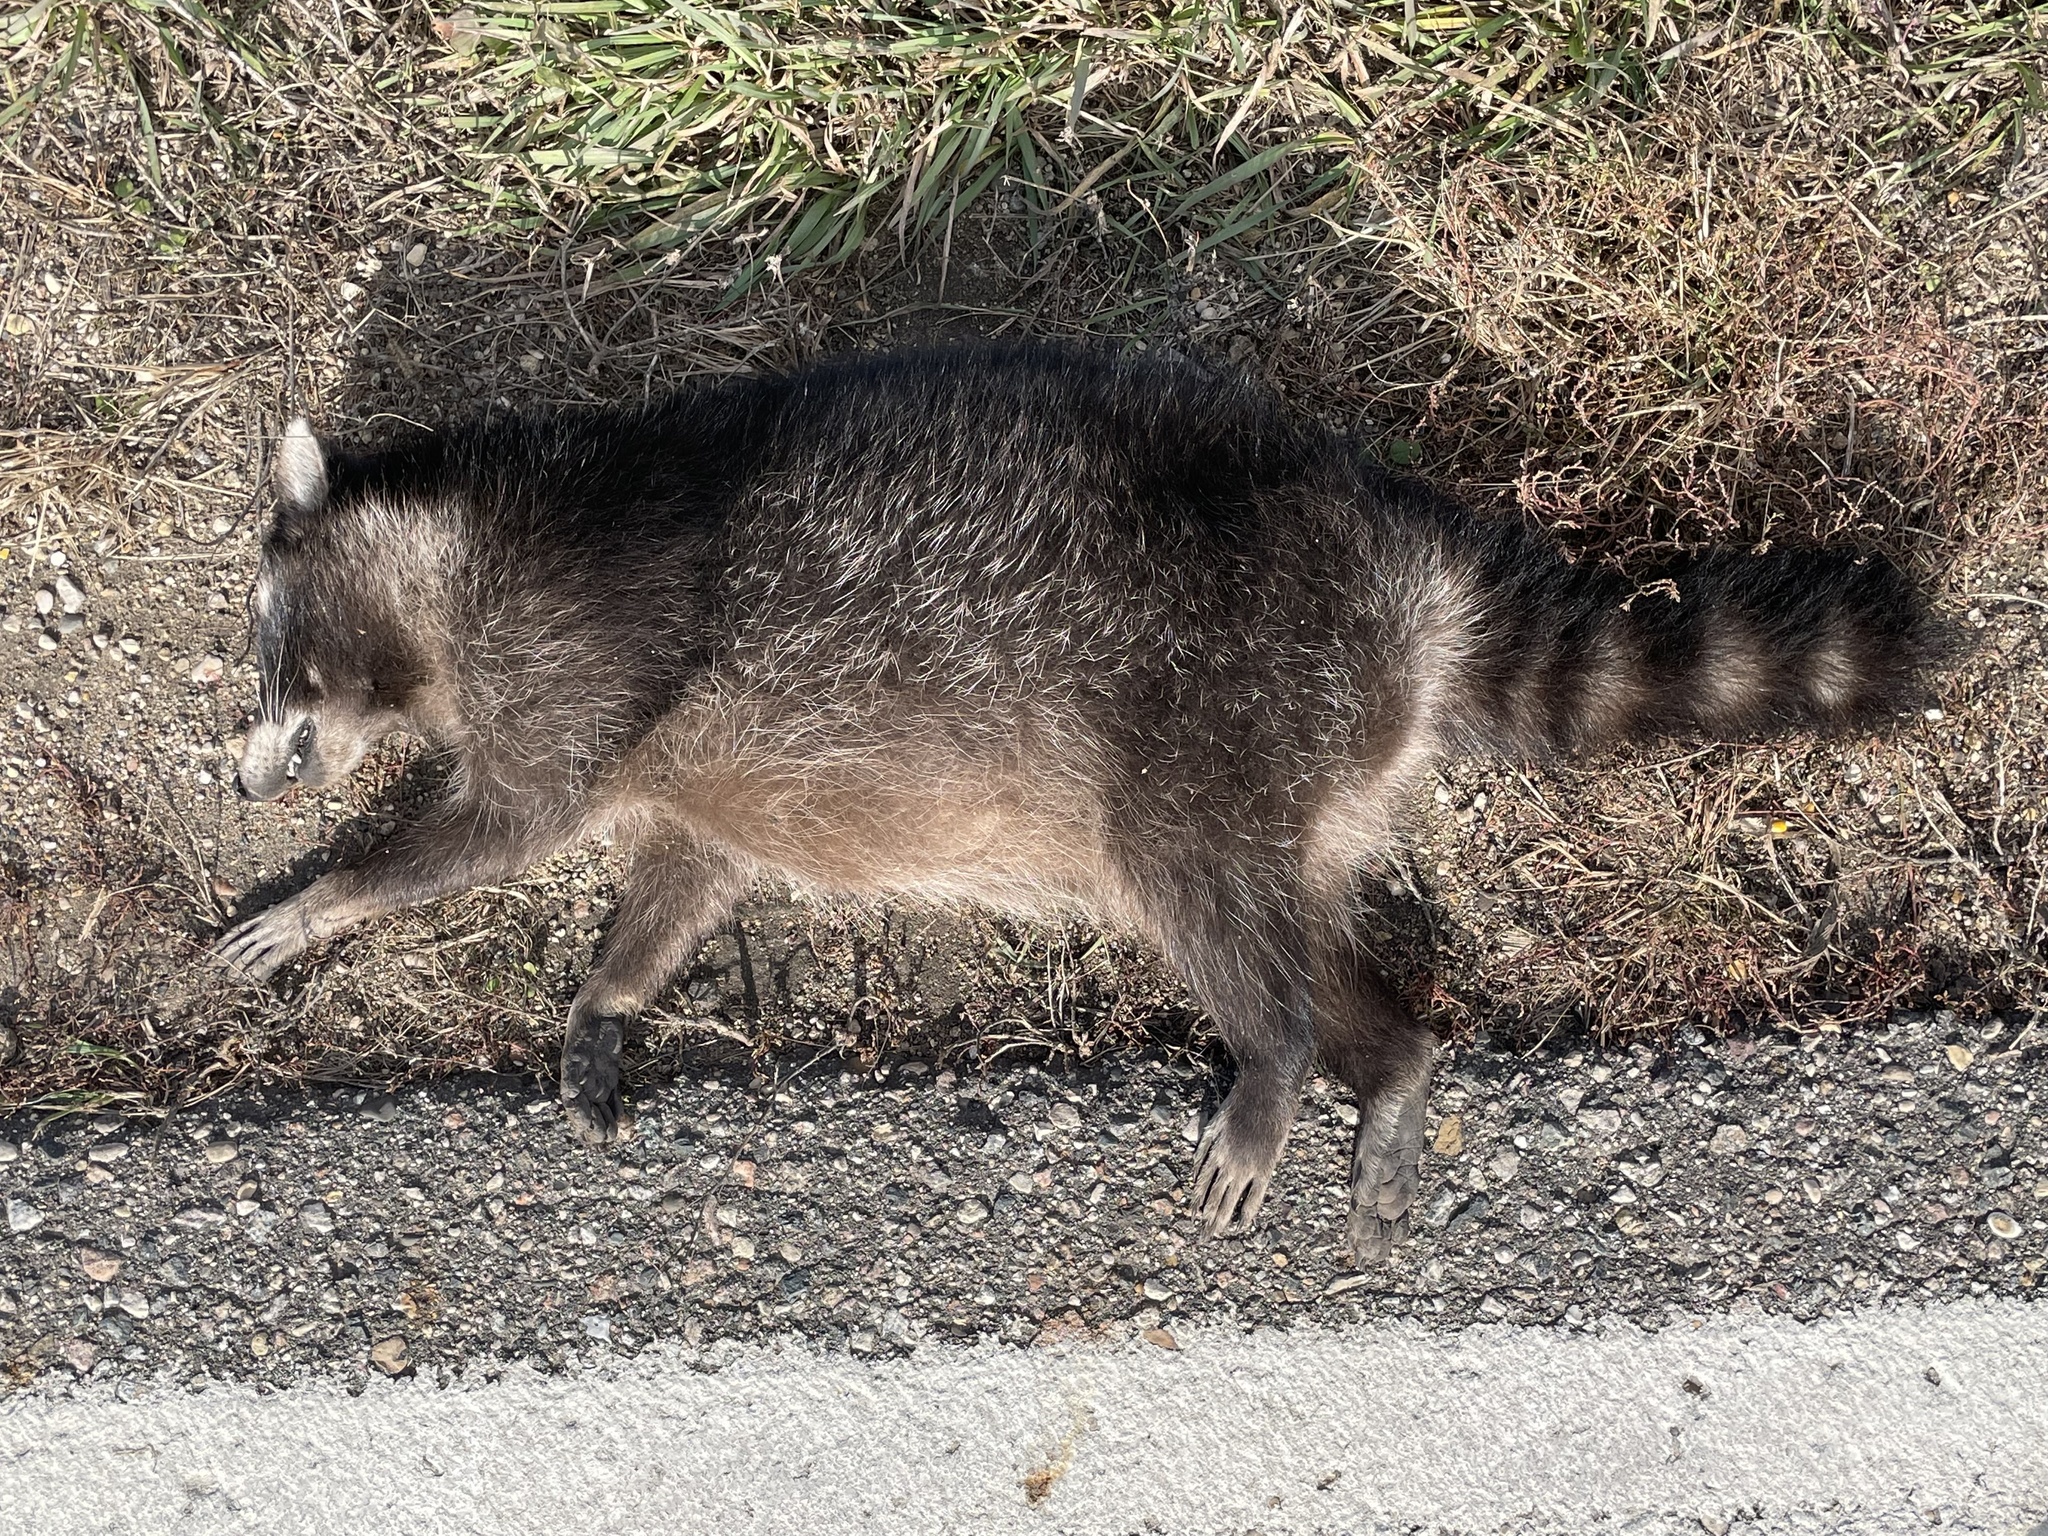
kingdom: Animalia
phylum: Chordata
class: Mammalia
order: Carnivora
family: Procyonidae
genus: Procyon
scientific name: Procyon lotor
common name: Raccoon
